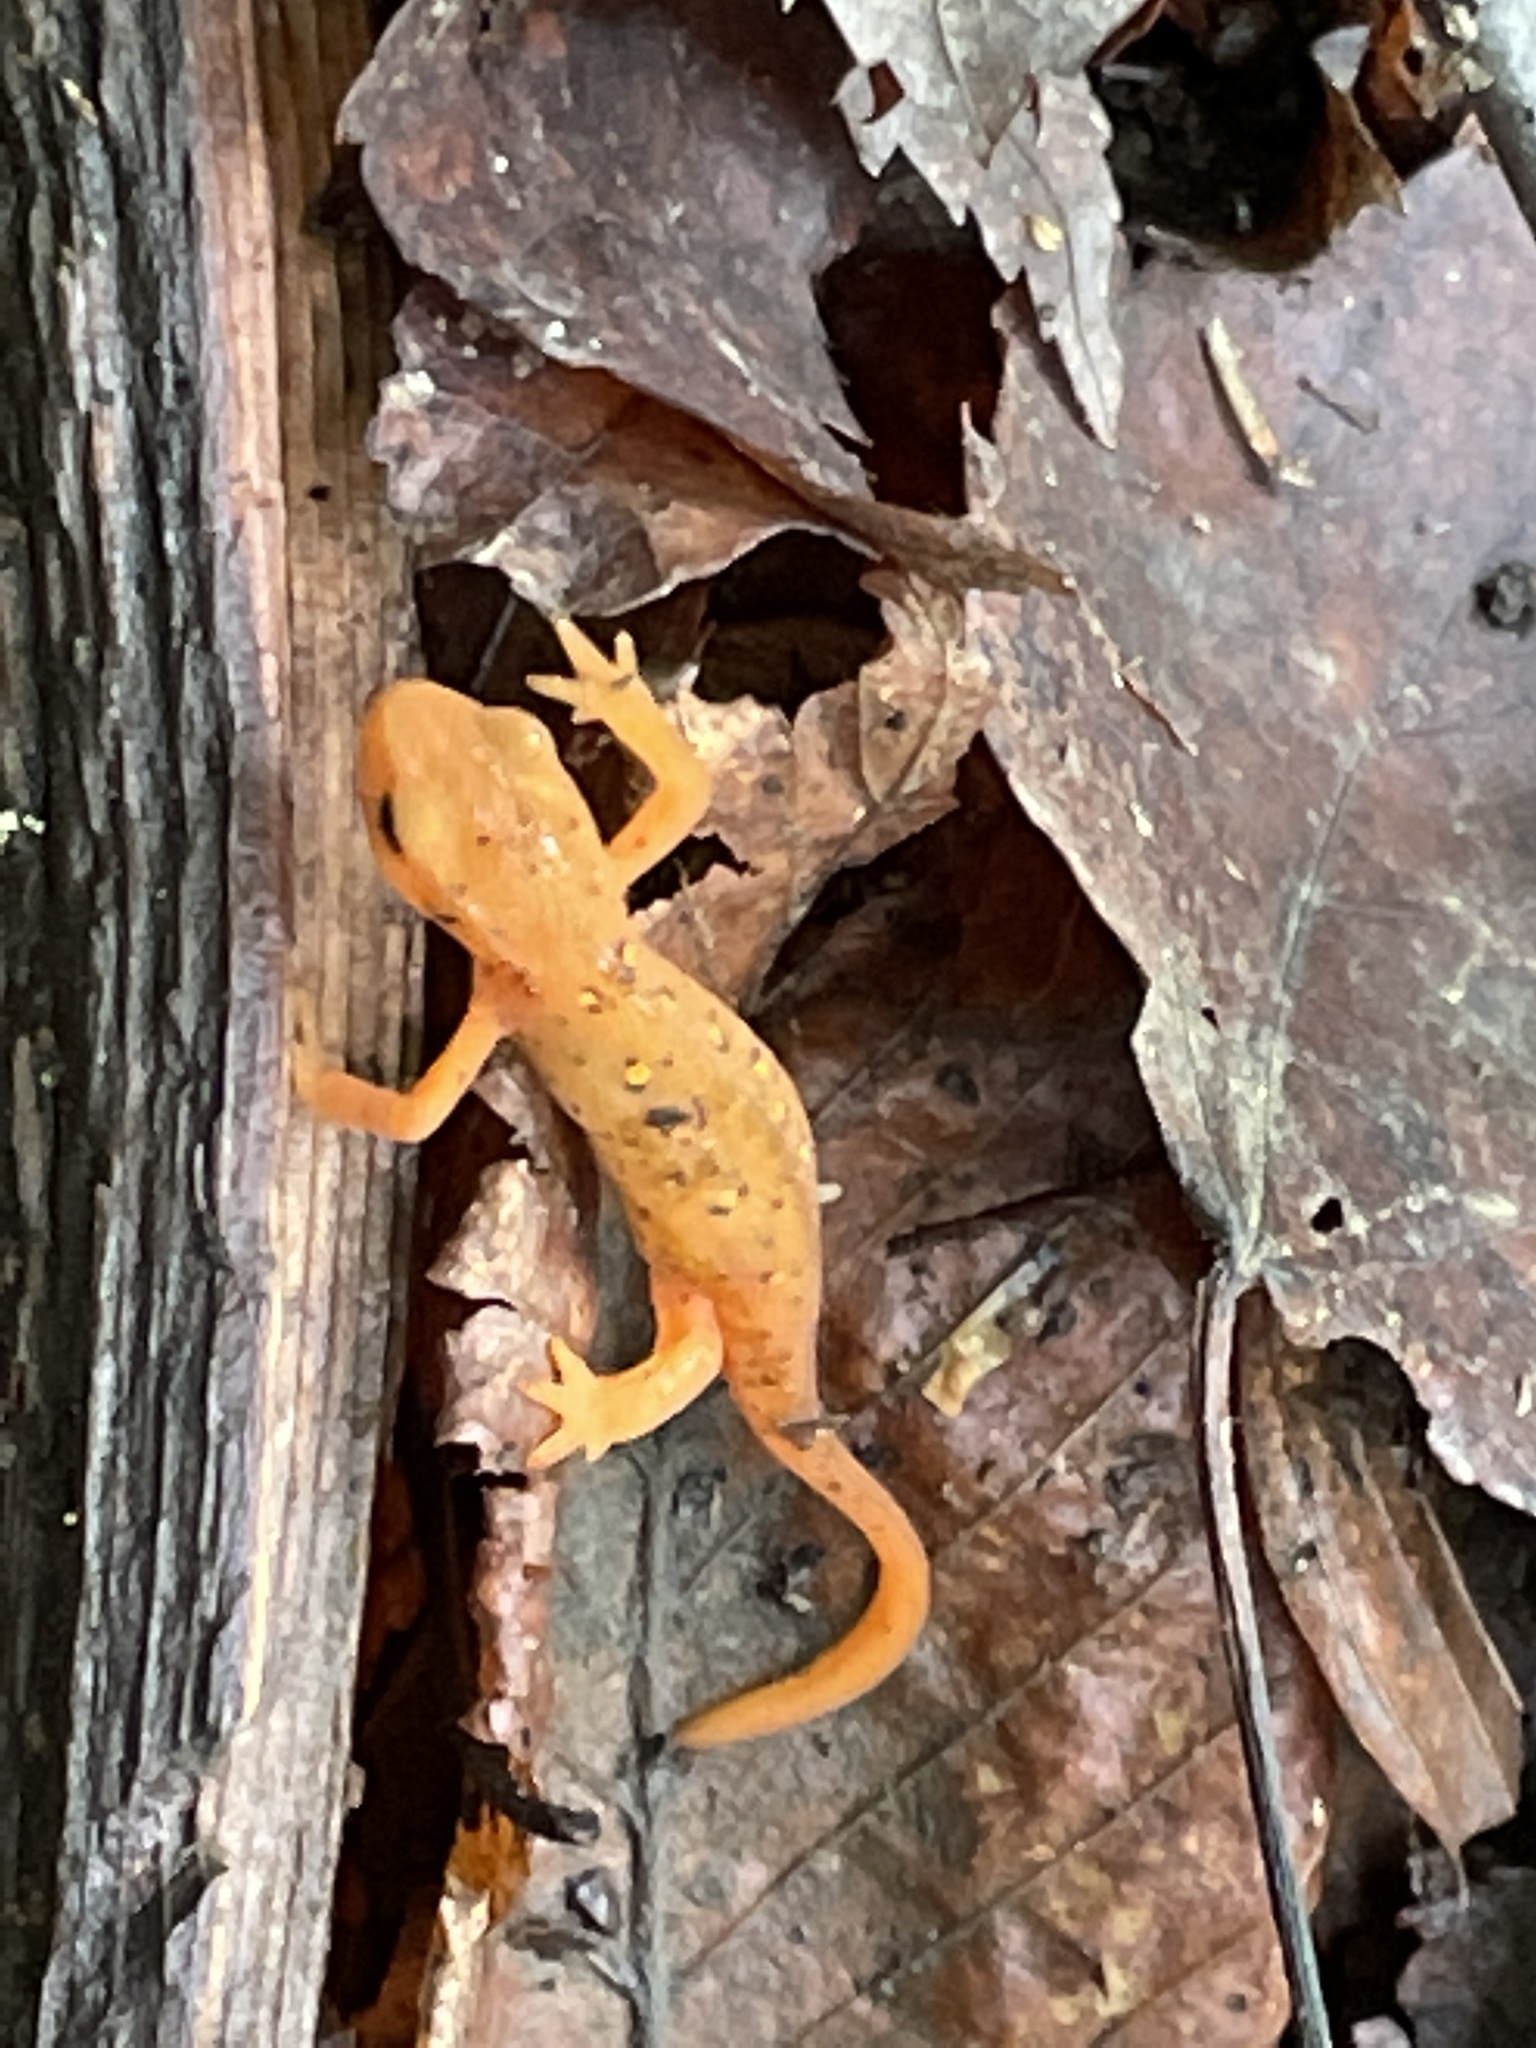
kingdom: Animalia
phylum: Chordata
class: Amphibia
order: Caudata
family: Salamandridae
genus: Notophthalmus
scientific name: Notophthalmus viridescens
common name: Eastern newt
